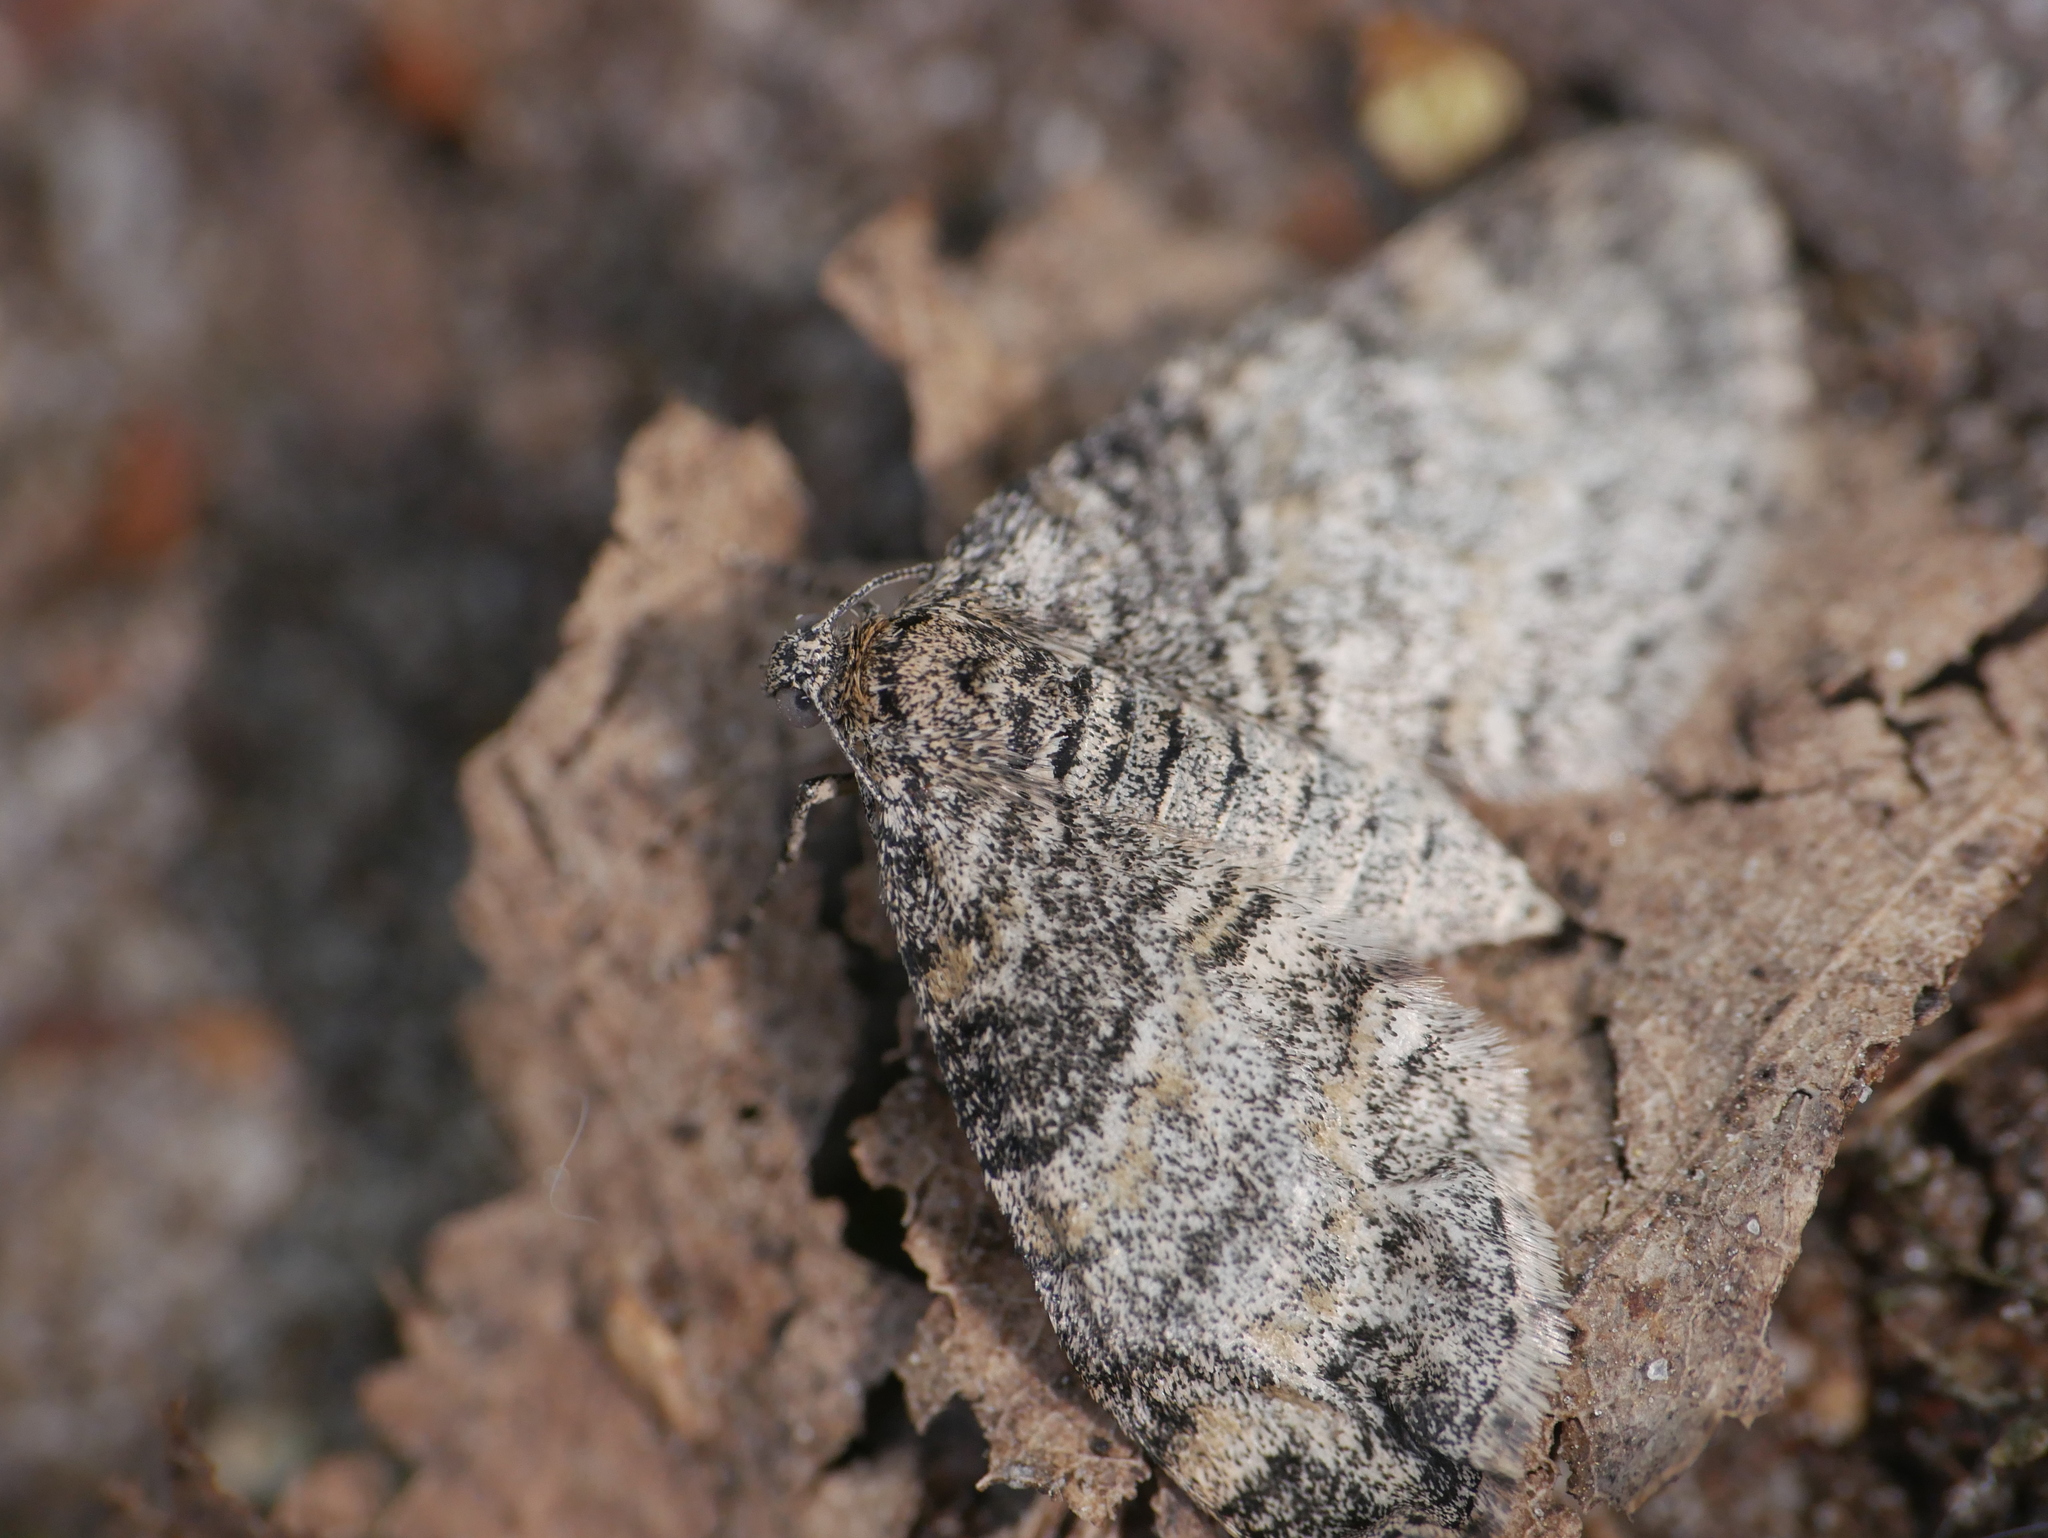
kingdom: Animalia
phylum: Arthropoda
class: Insecta
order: Lepidoptera
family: Geometridae
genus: Lobophora
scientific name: Lobophora halterata
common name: Seraphim
